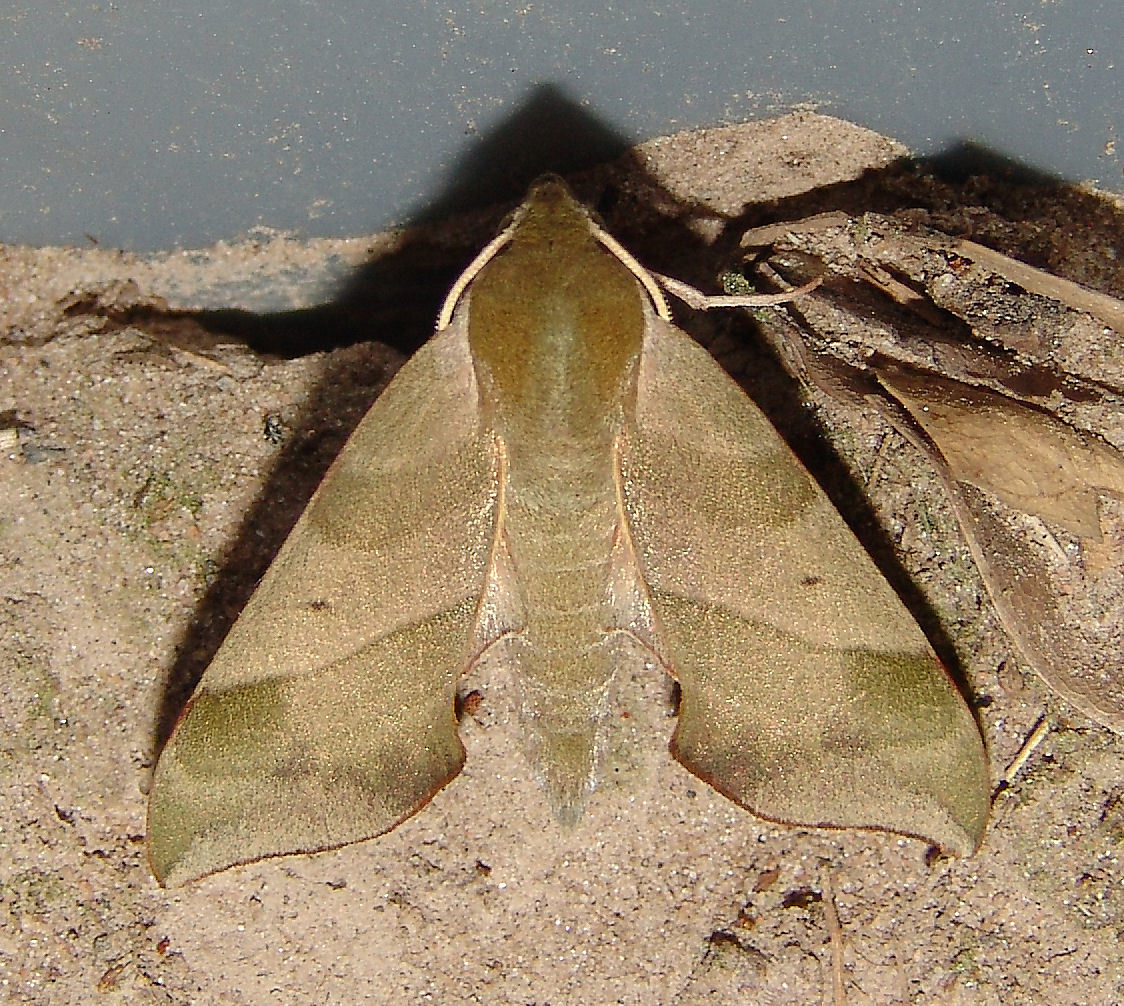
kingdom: Animalia
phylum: Arthropoda
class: Insecta
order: Lepidoptera
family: Sphingidae
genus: Darapsa
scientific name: Darapsa myron
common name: Hog sphinx
